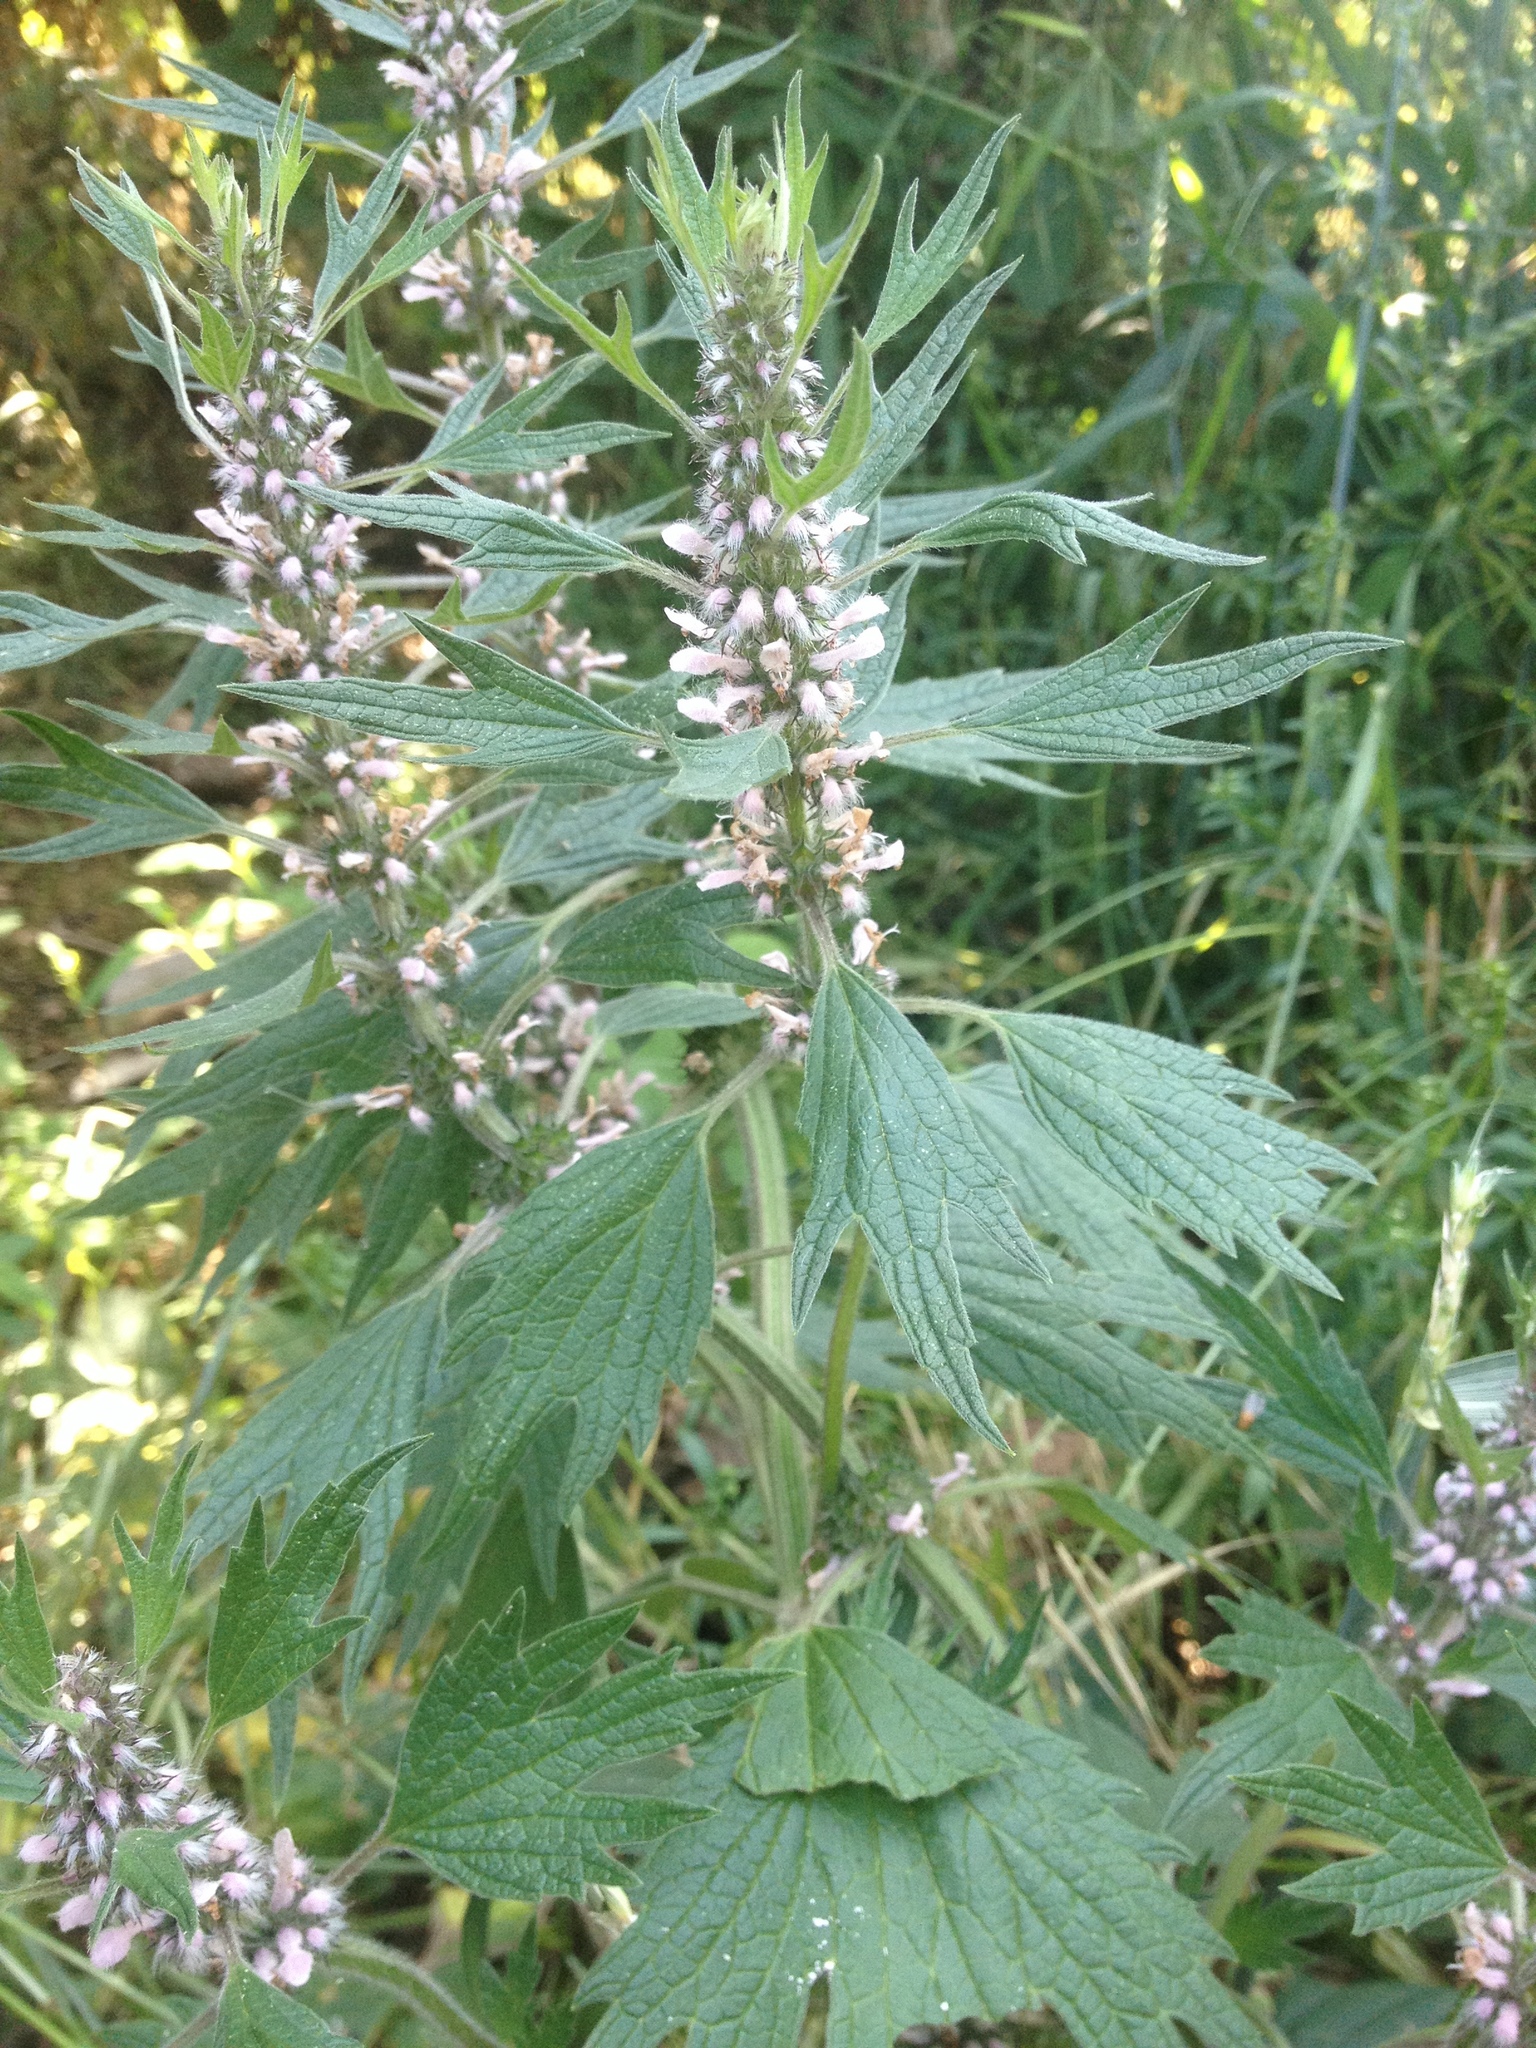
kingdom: Plantae
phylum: Tracheophyta
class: Magnoliopsida
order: Lamiales
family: Lamiaceae
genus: Leonurus
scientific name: Leonurus cardiaca
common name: Motherwort
